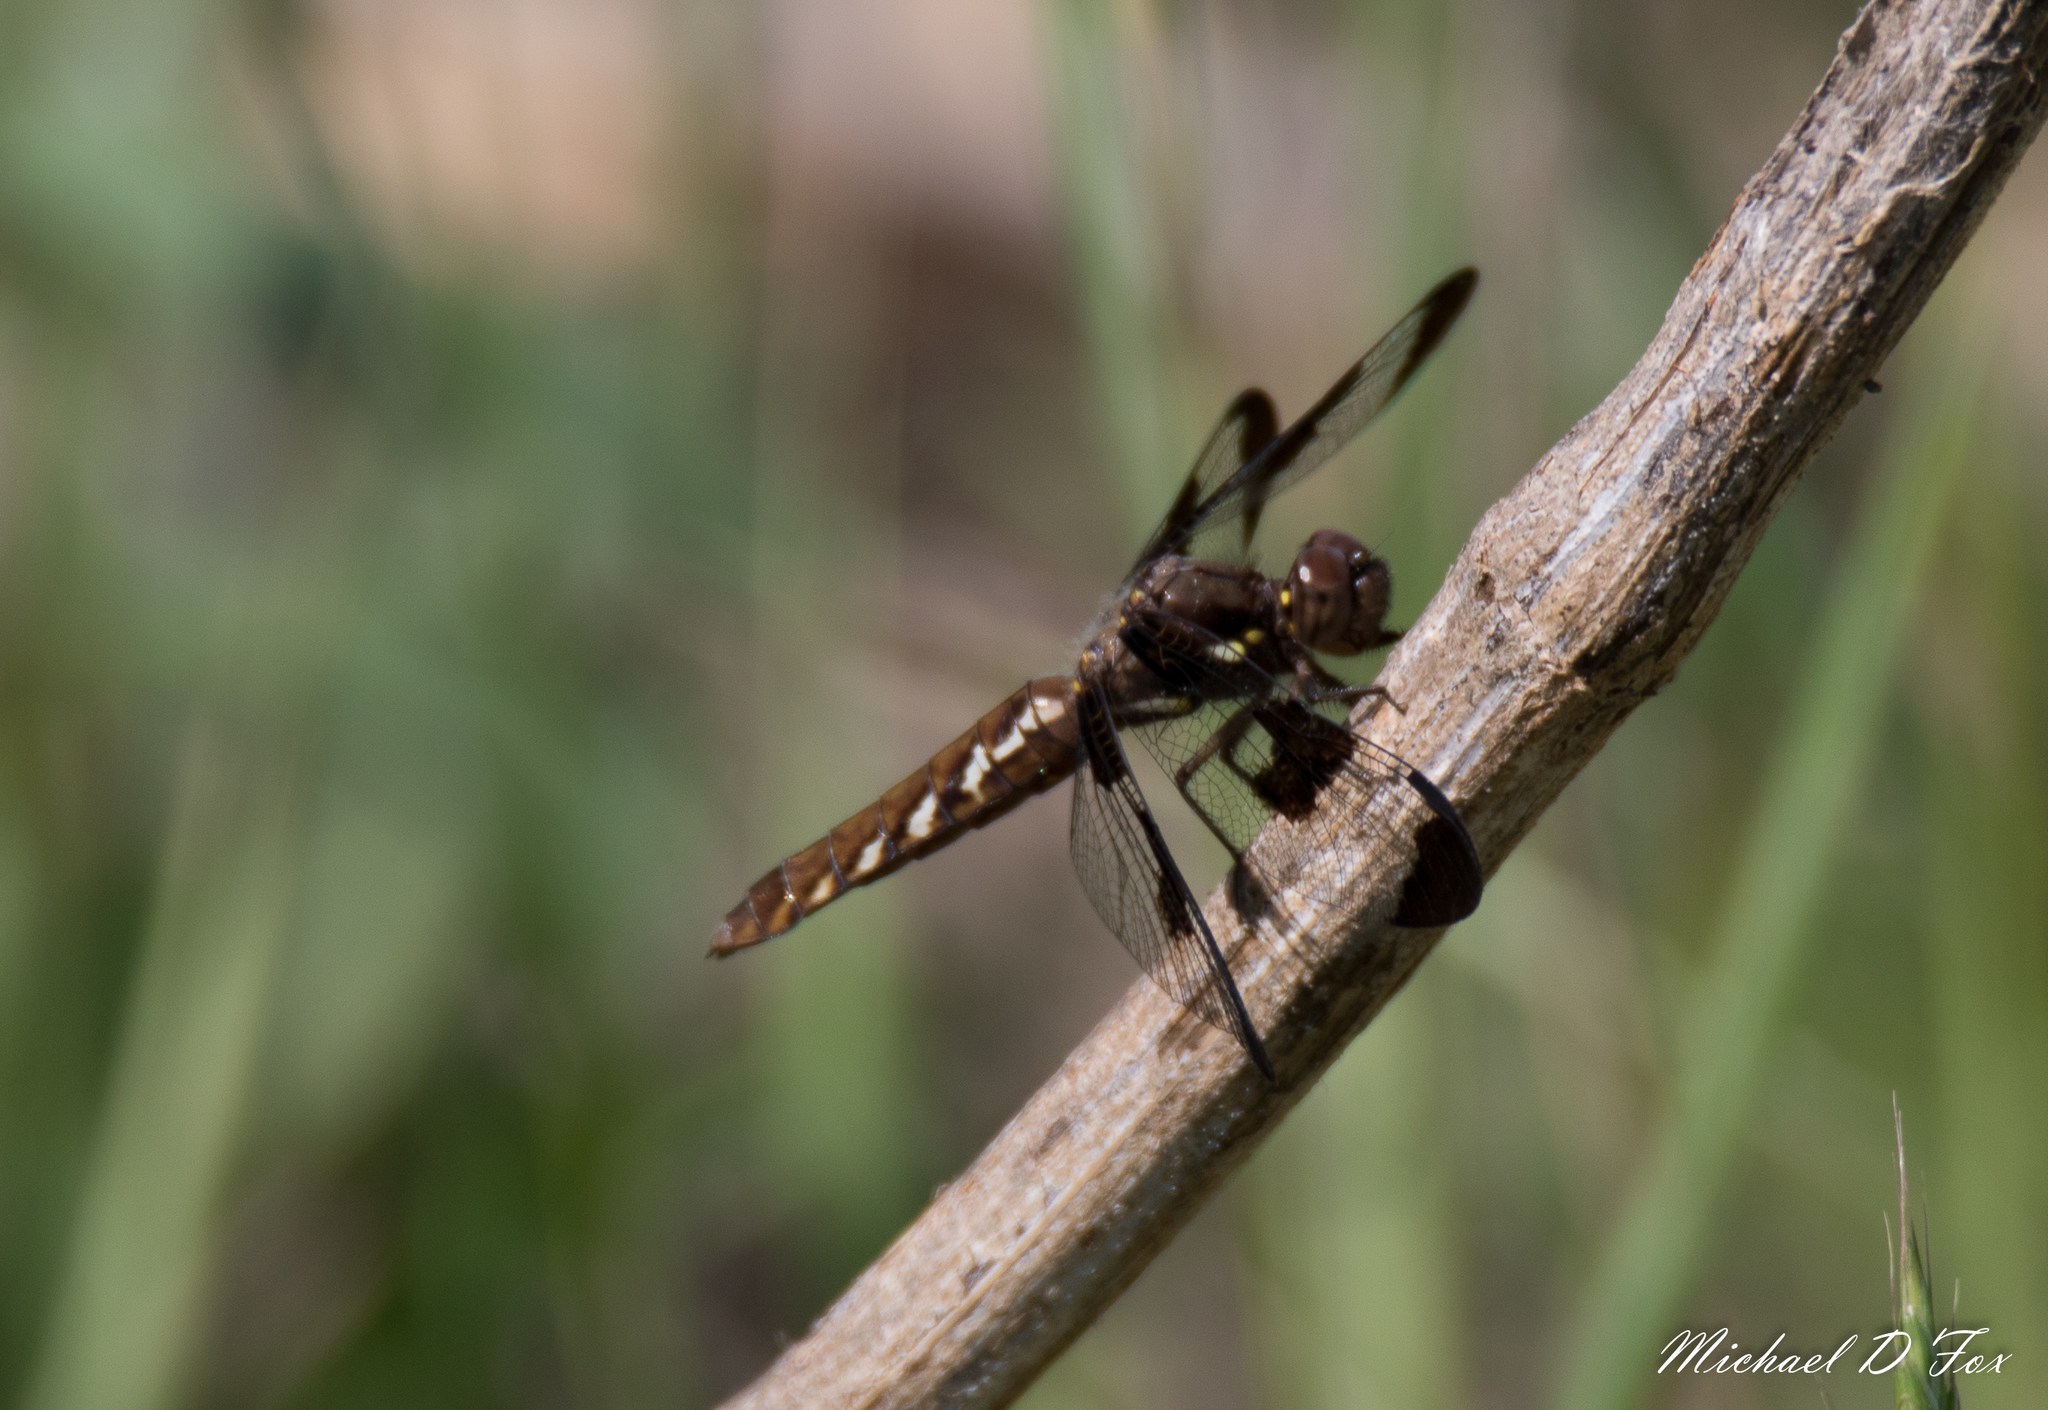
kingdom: Animalia
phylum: Arthropoda
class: Insecta
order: Odonata
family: Libellulidae
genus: Plathemis
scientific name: Plathemis lydia
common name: Common whitetail
